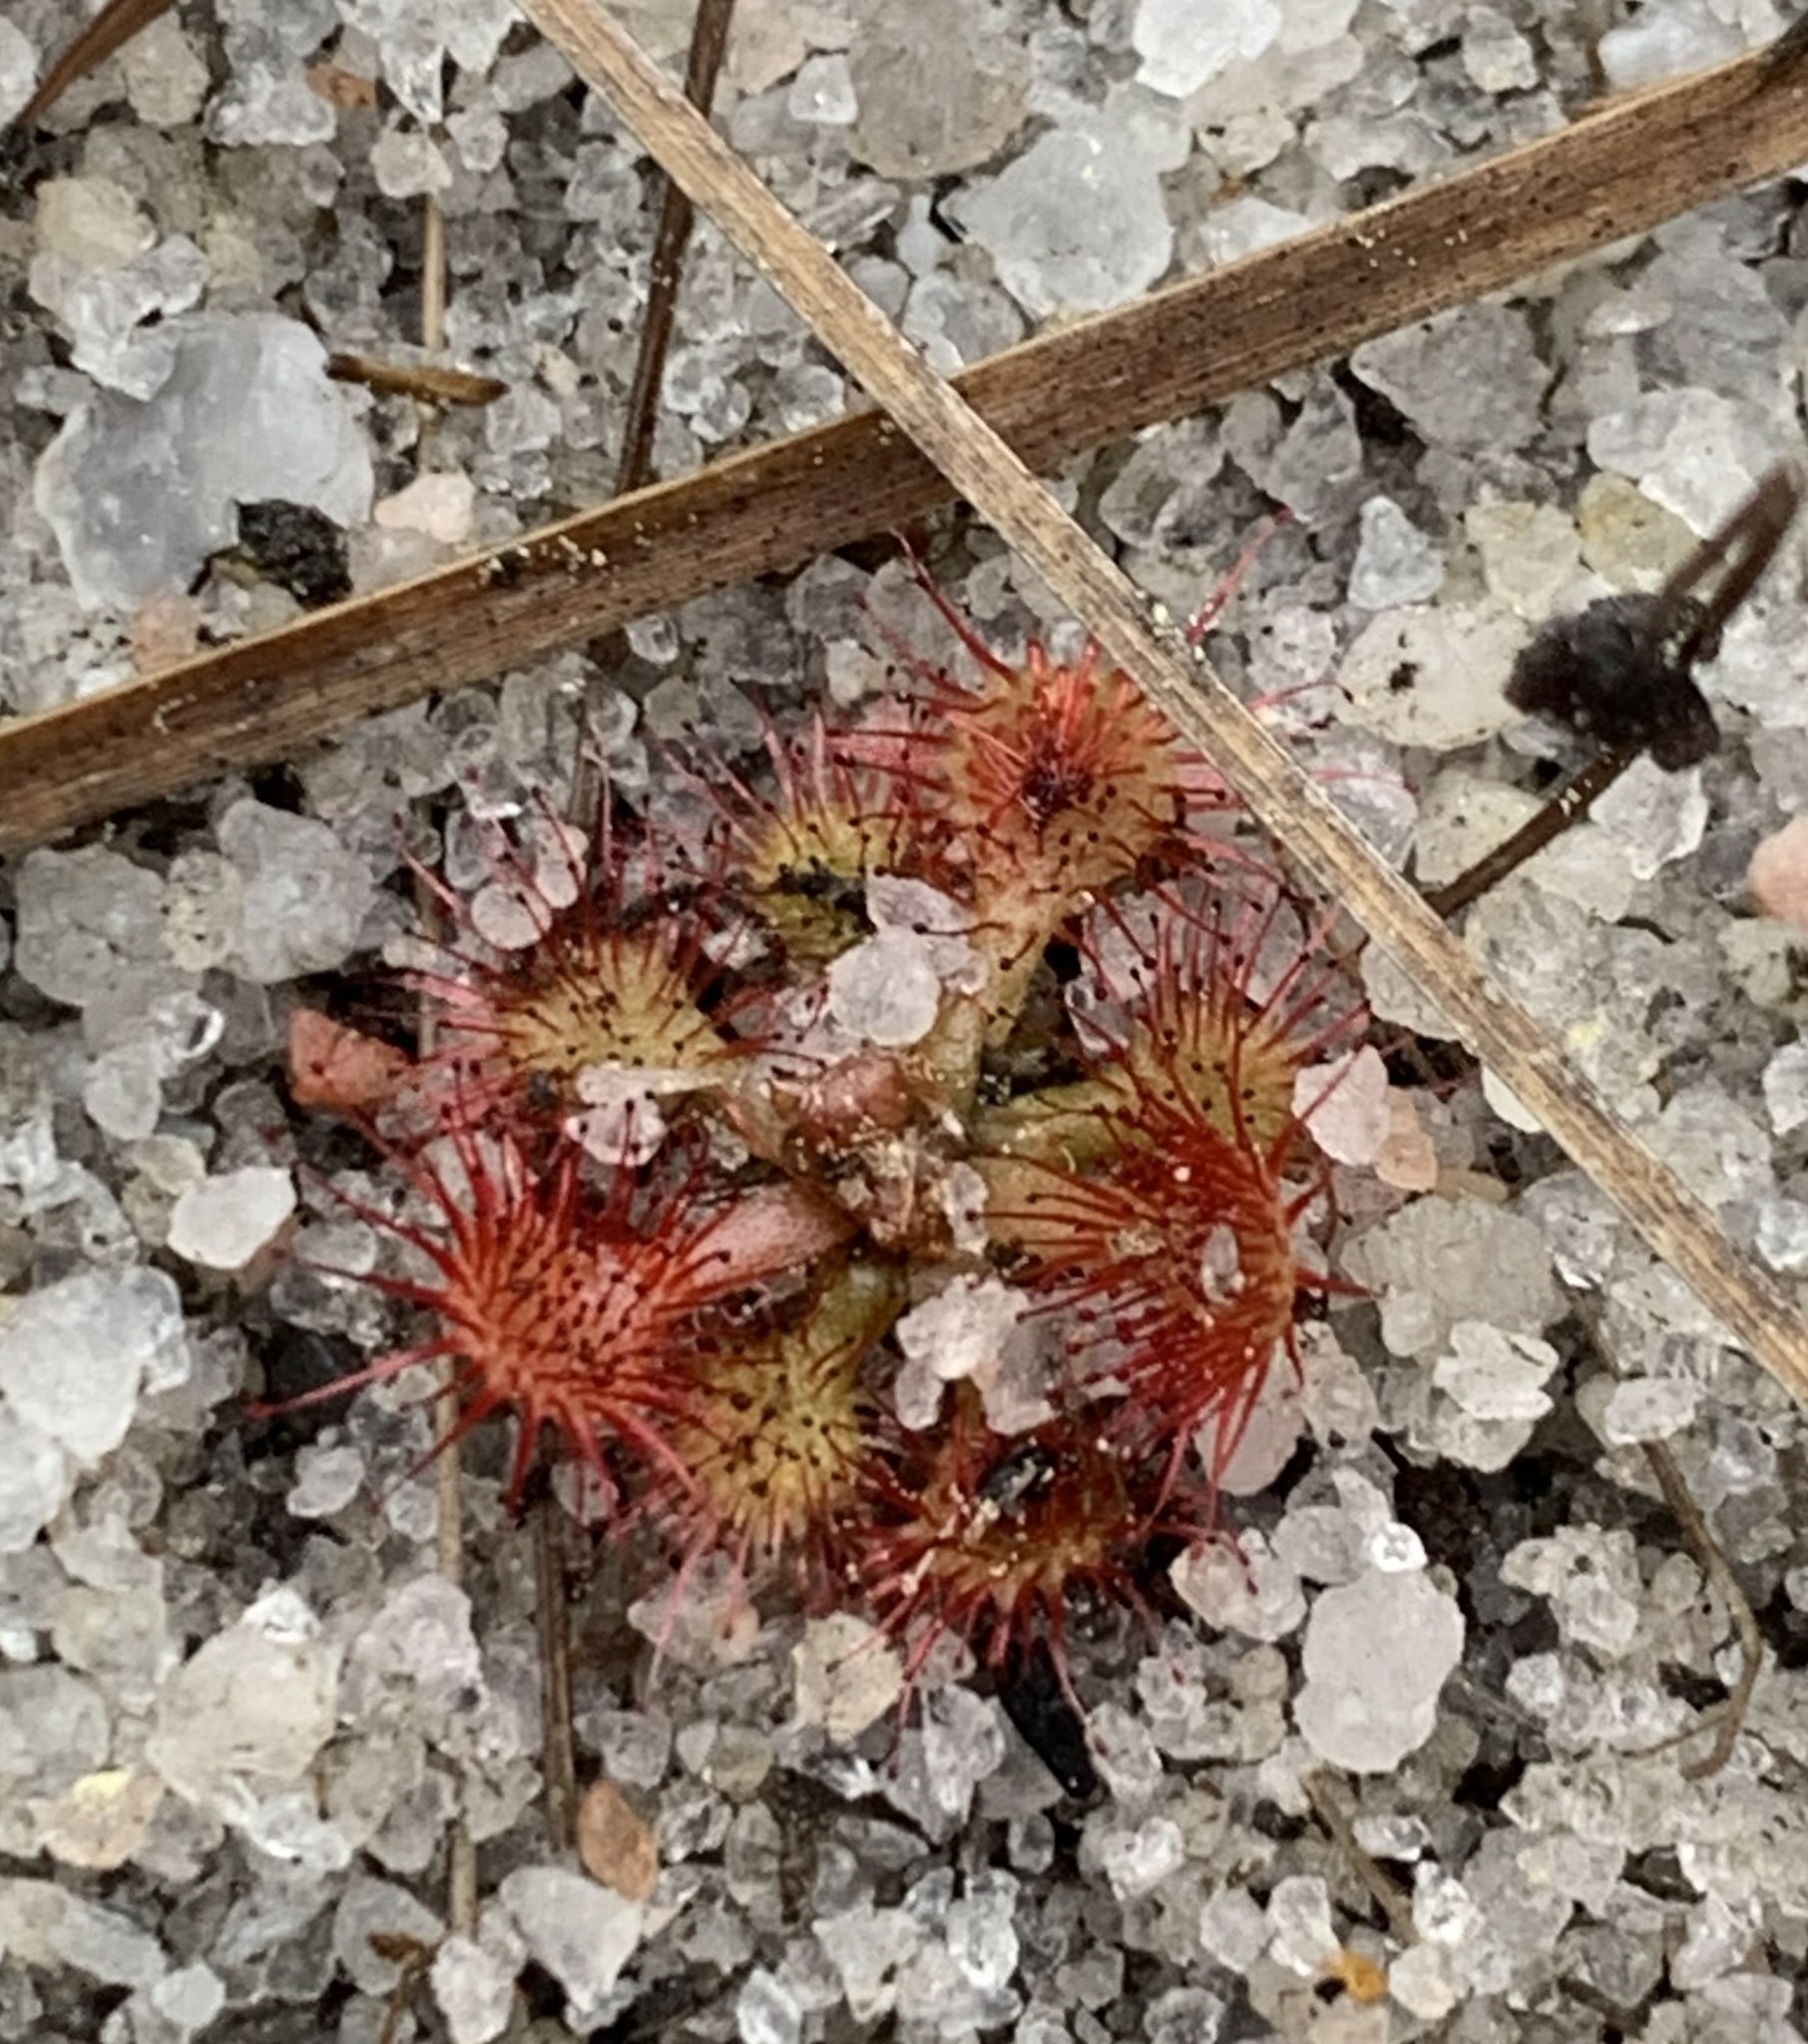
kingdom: Plantae
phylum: Tracheophyta
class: Magnoliopsida
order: Caryophyllales
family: Droseraceae
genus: Drosera
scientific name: Drosera brevifolia
